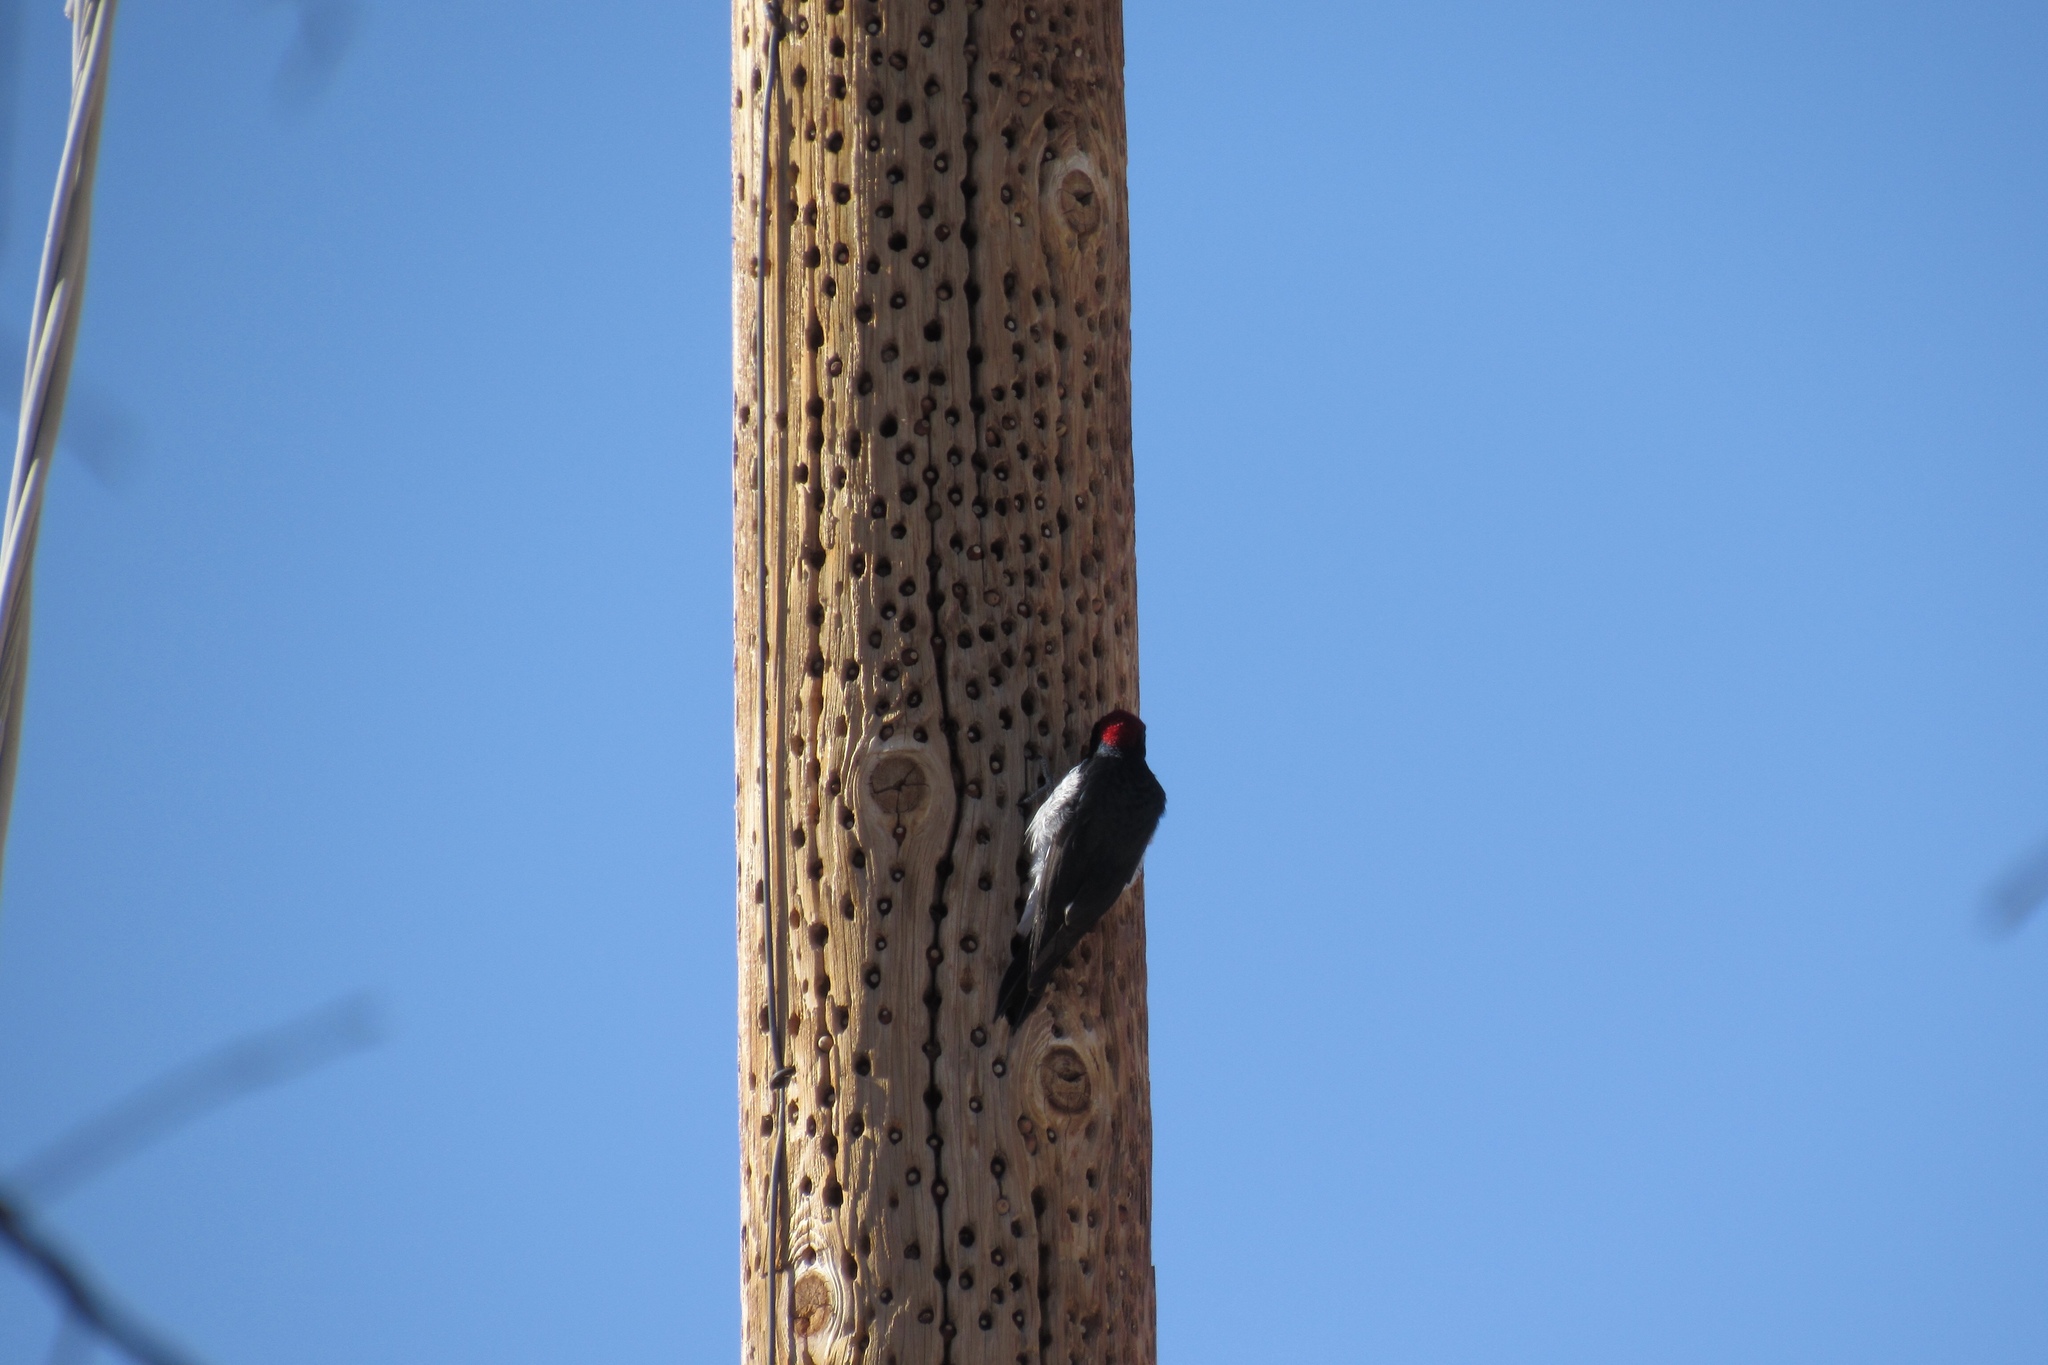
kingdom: Animalia
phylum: Chordata
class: Aves
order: Piciformes
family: Picidae
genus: Melanerpes
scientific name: Melanerpes formicivorus
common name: Acorn woodpecker
